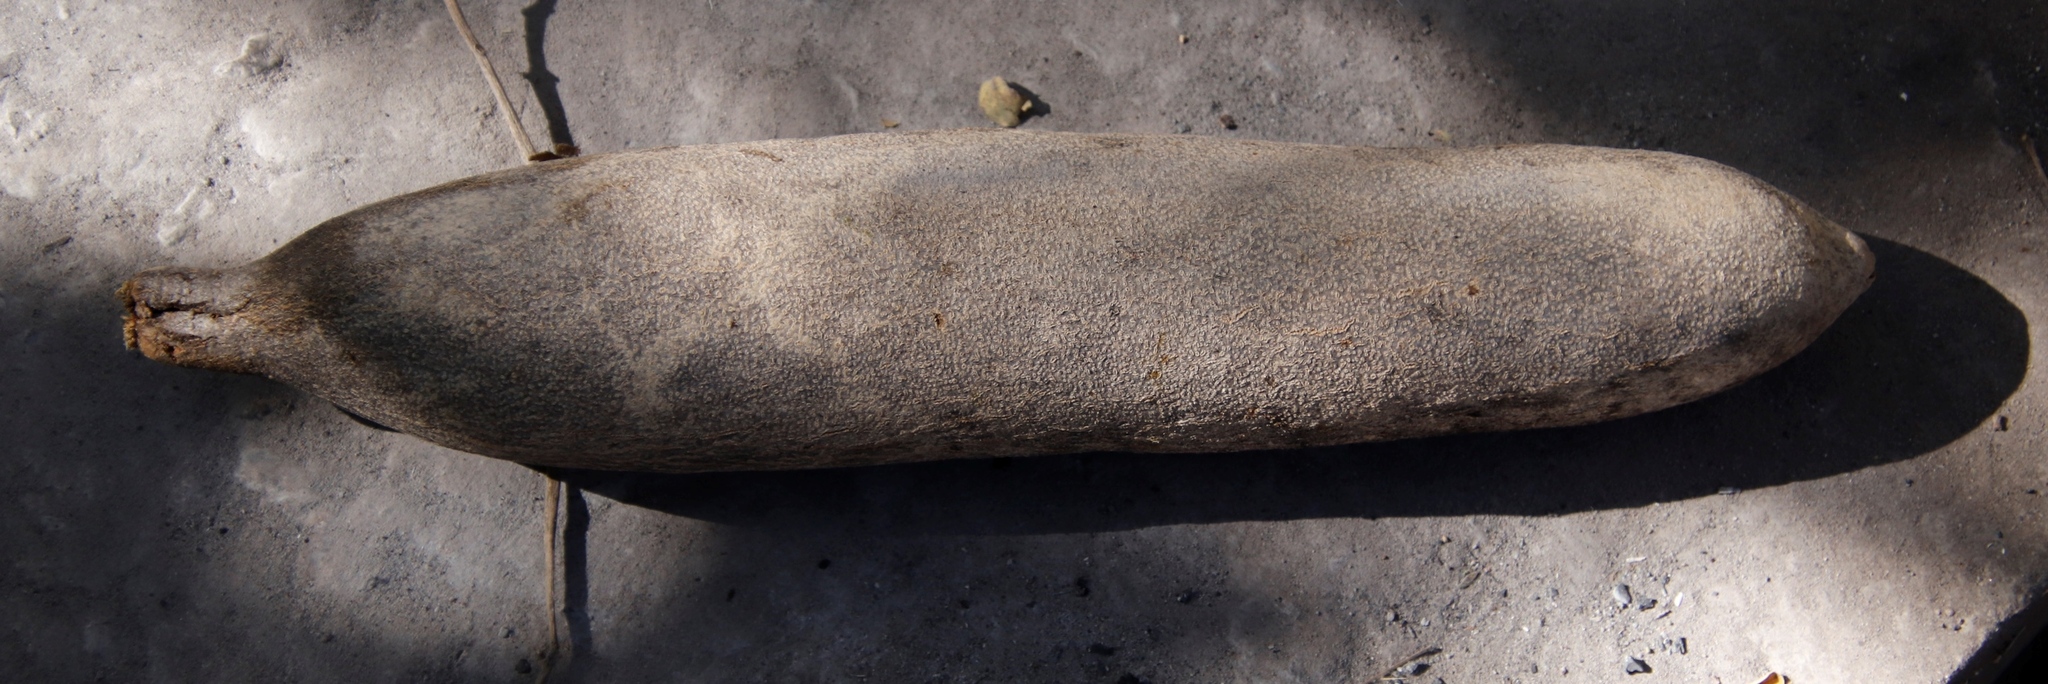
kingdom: Plantae
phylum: Tracheophyta
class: Magnoliopsida
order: Lamiales
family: Bignoniaceae
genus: Kigelia
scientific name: Kigelia africana
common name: Sausage tree
